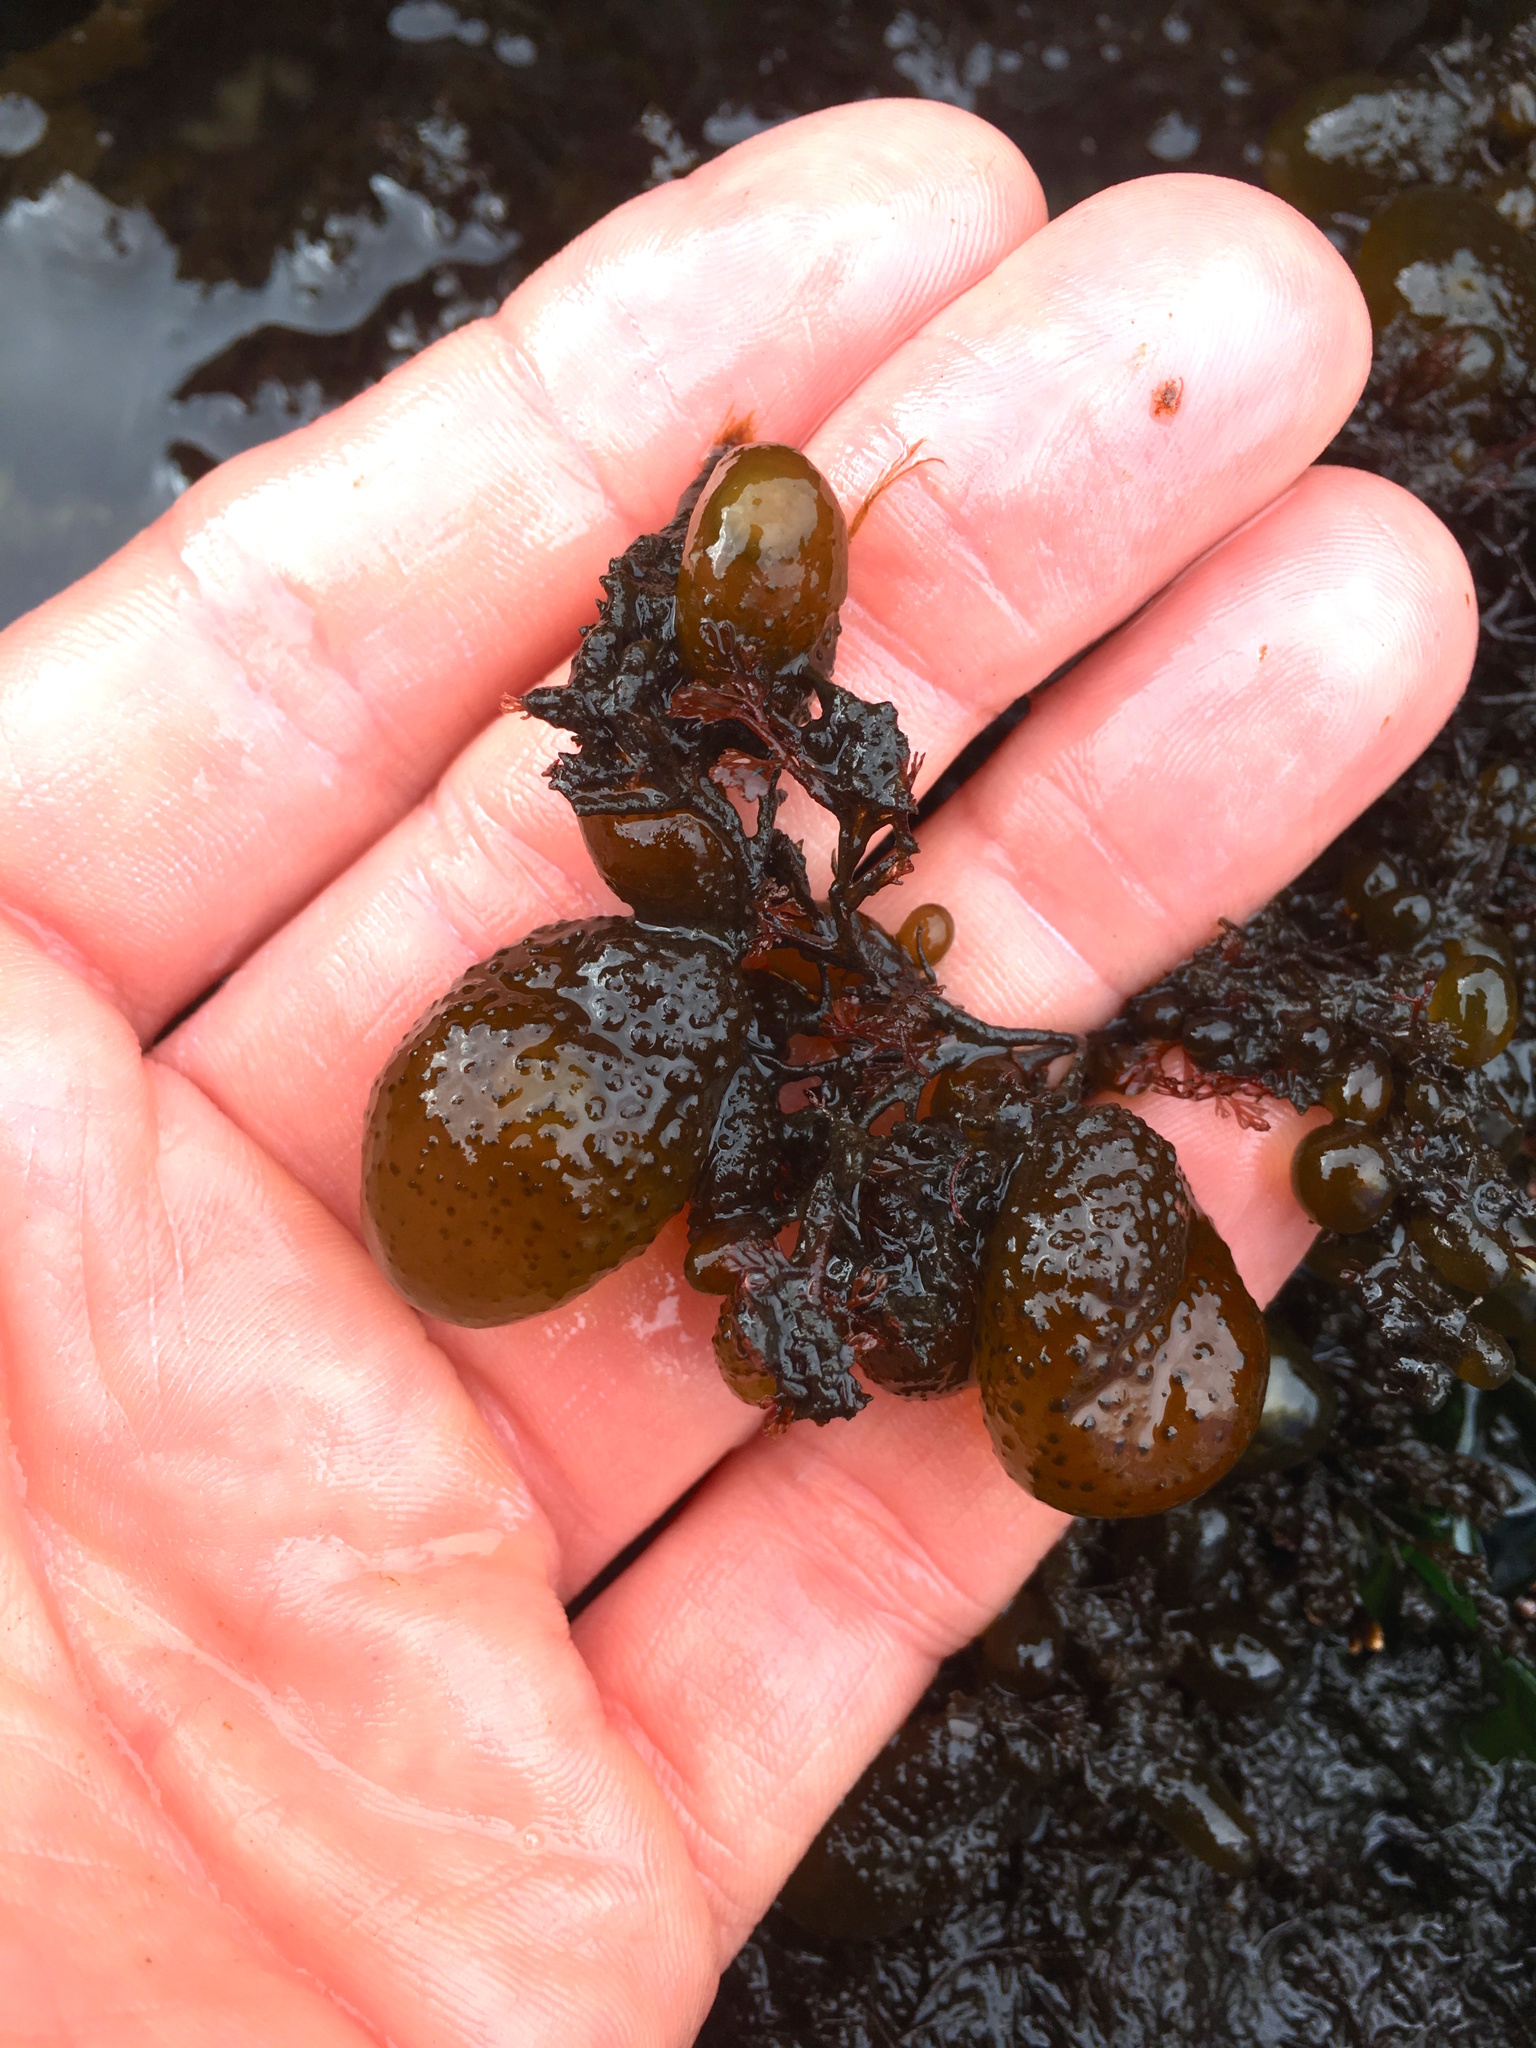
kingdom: Chromista
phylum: Ochrophyta
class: Phaeophyceae
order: Dictyosiphonales
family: Punctariaceae
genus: Soranthera
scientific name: Soranthera ulvoidea
